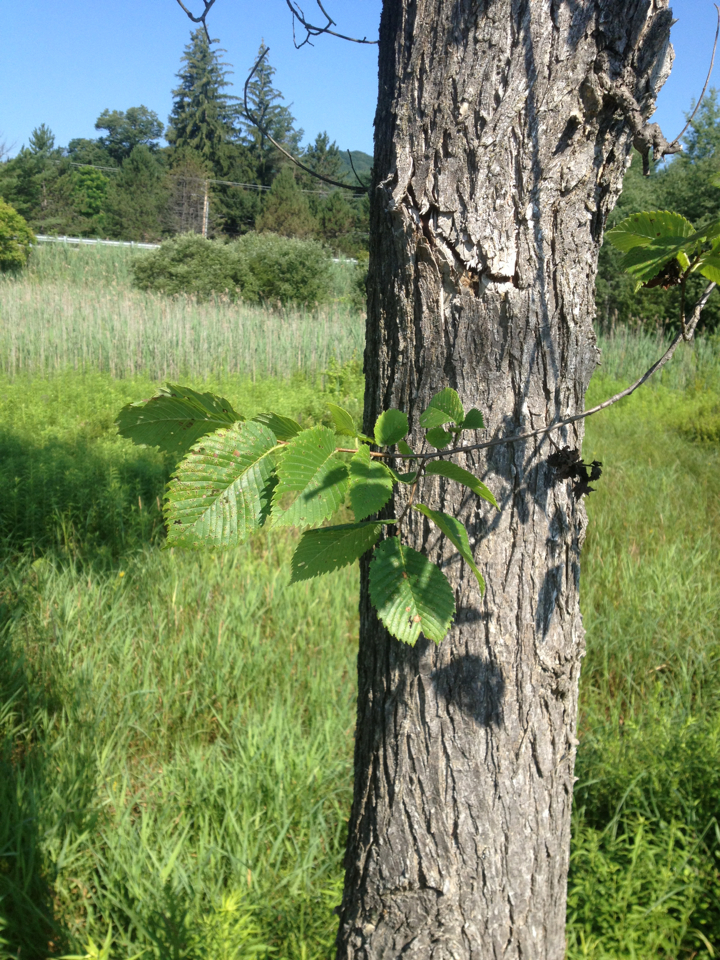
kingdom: Plantae
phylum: Tracheophyta
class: Magnoliopsida
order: Rosales
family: Ulmaceae
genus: Ulmus
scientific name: Ulmus americana
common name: American elm
